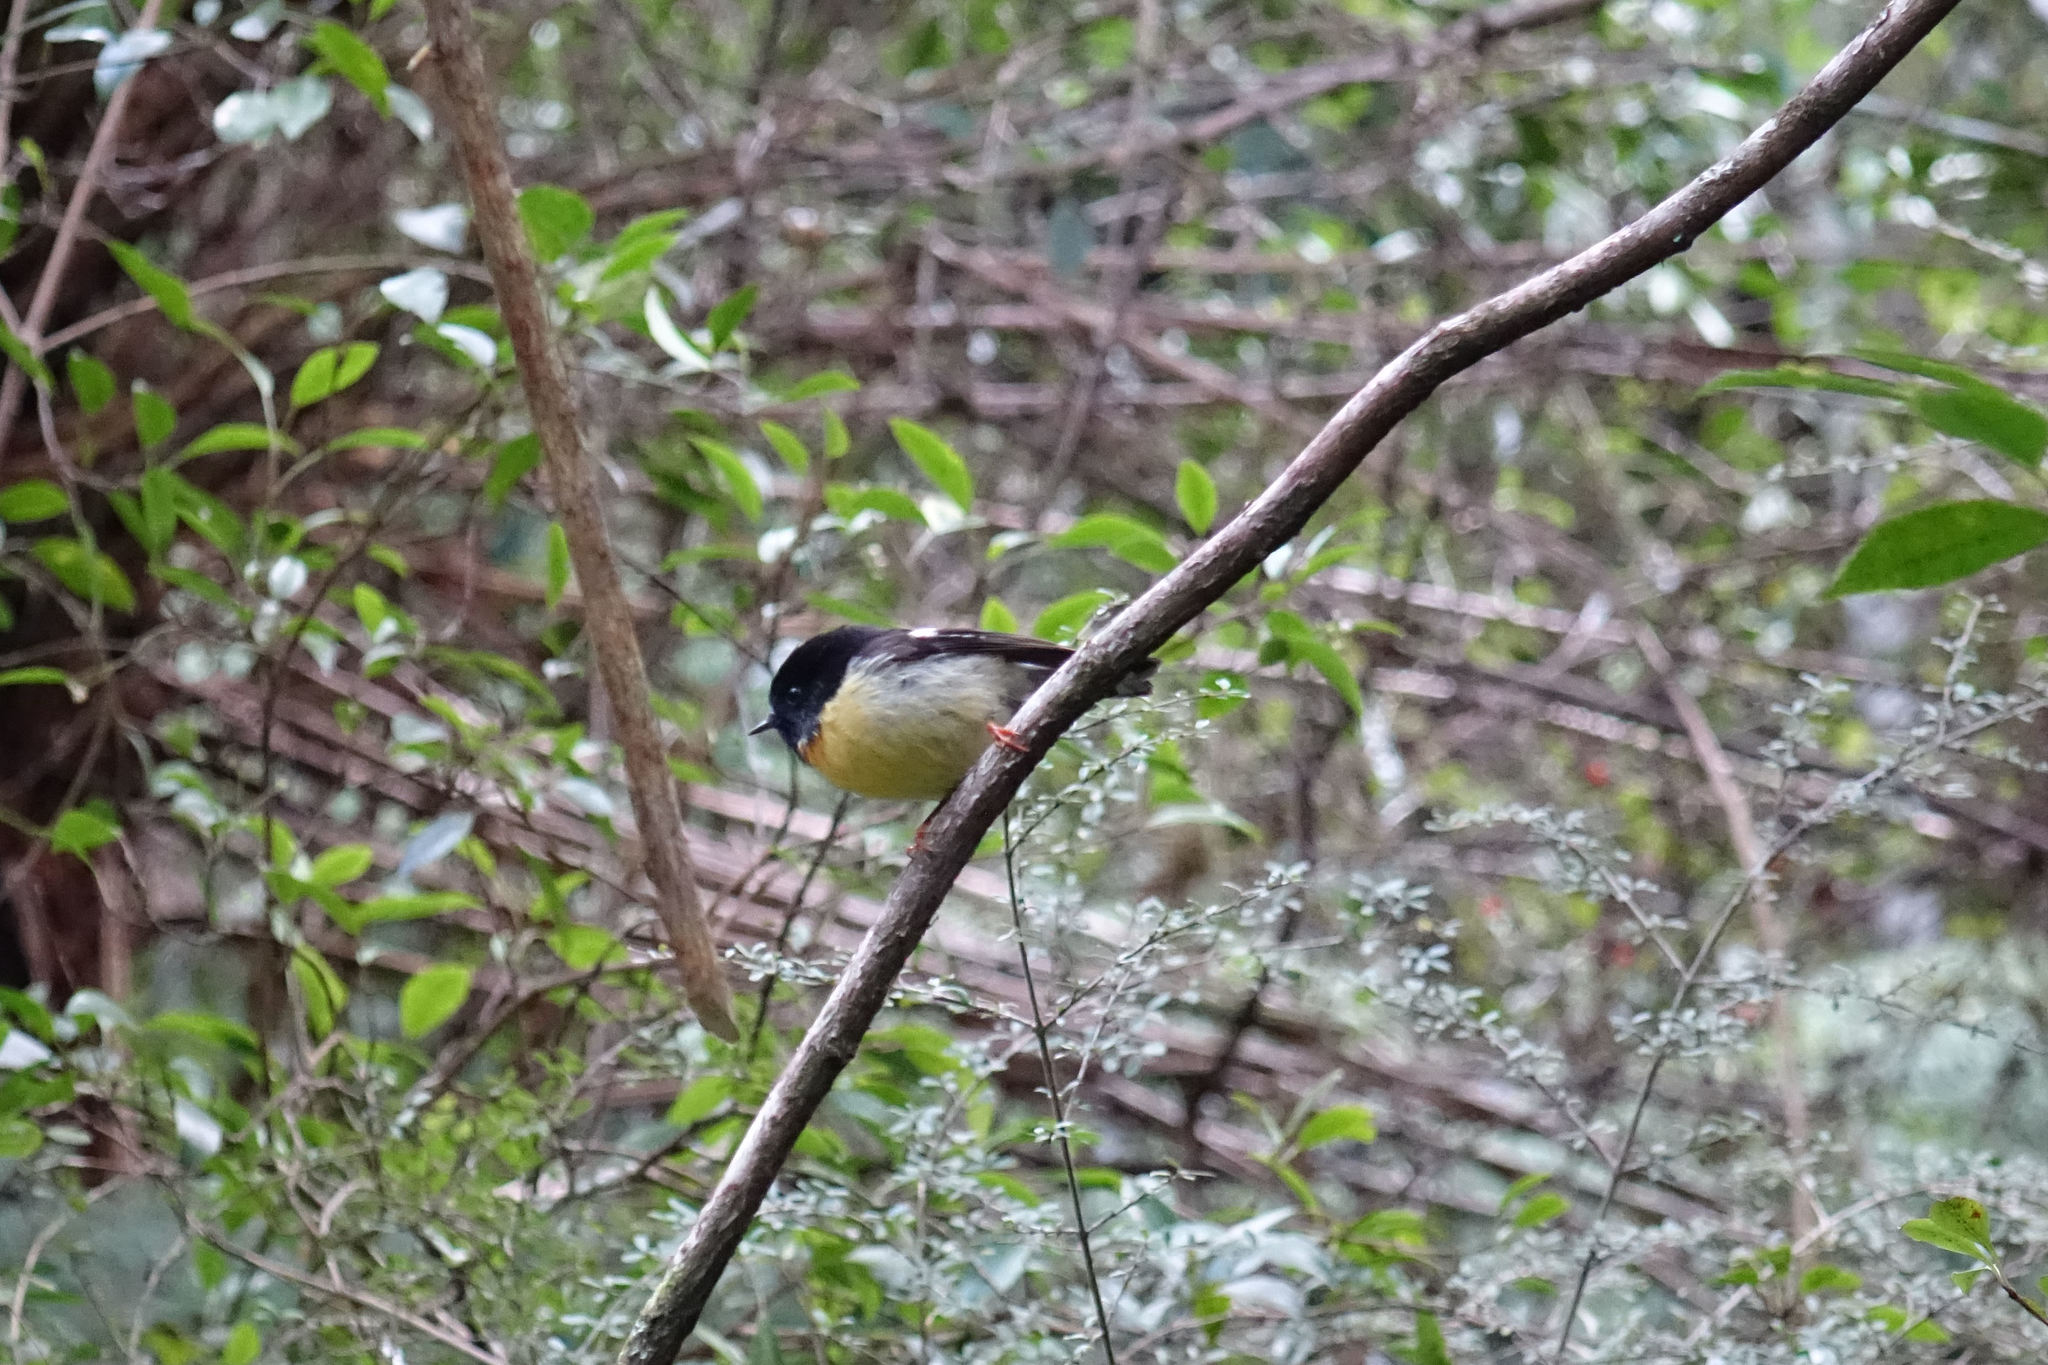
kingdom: Animalia
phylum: Chordata
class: Aves
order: Passeriformes
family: Petroicidae
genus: Petroica
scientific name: Petroica macrocephala
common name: Tomtit
